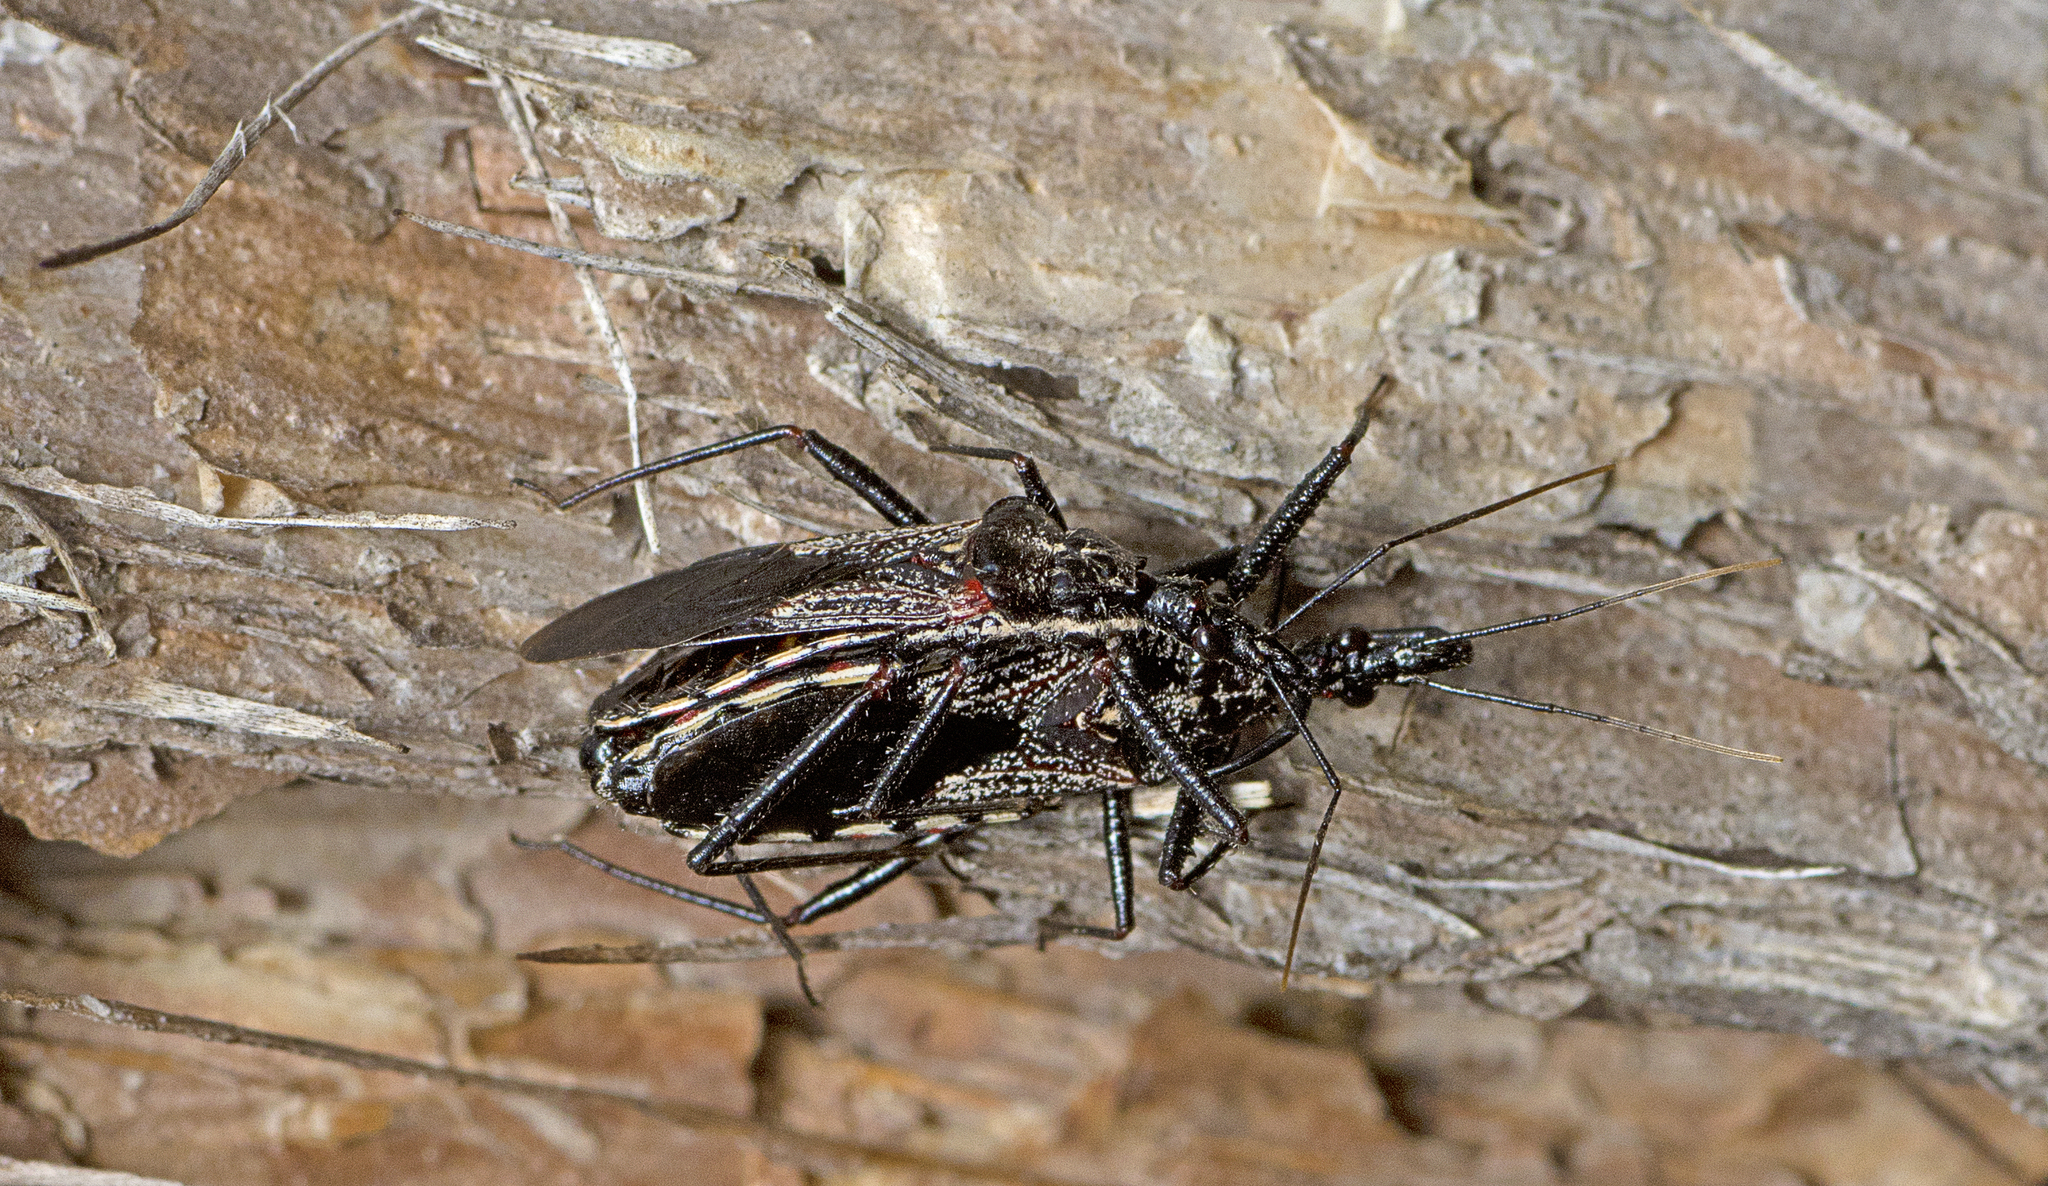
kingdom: Animalia
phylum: Arthropoda
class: Insecta
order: Hemiptera
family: Reduviidae
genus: Piestolestes
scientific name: Piestolestes obscurus
